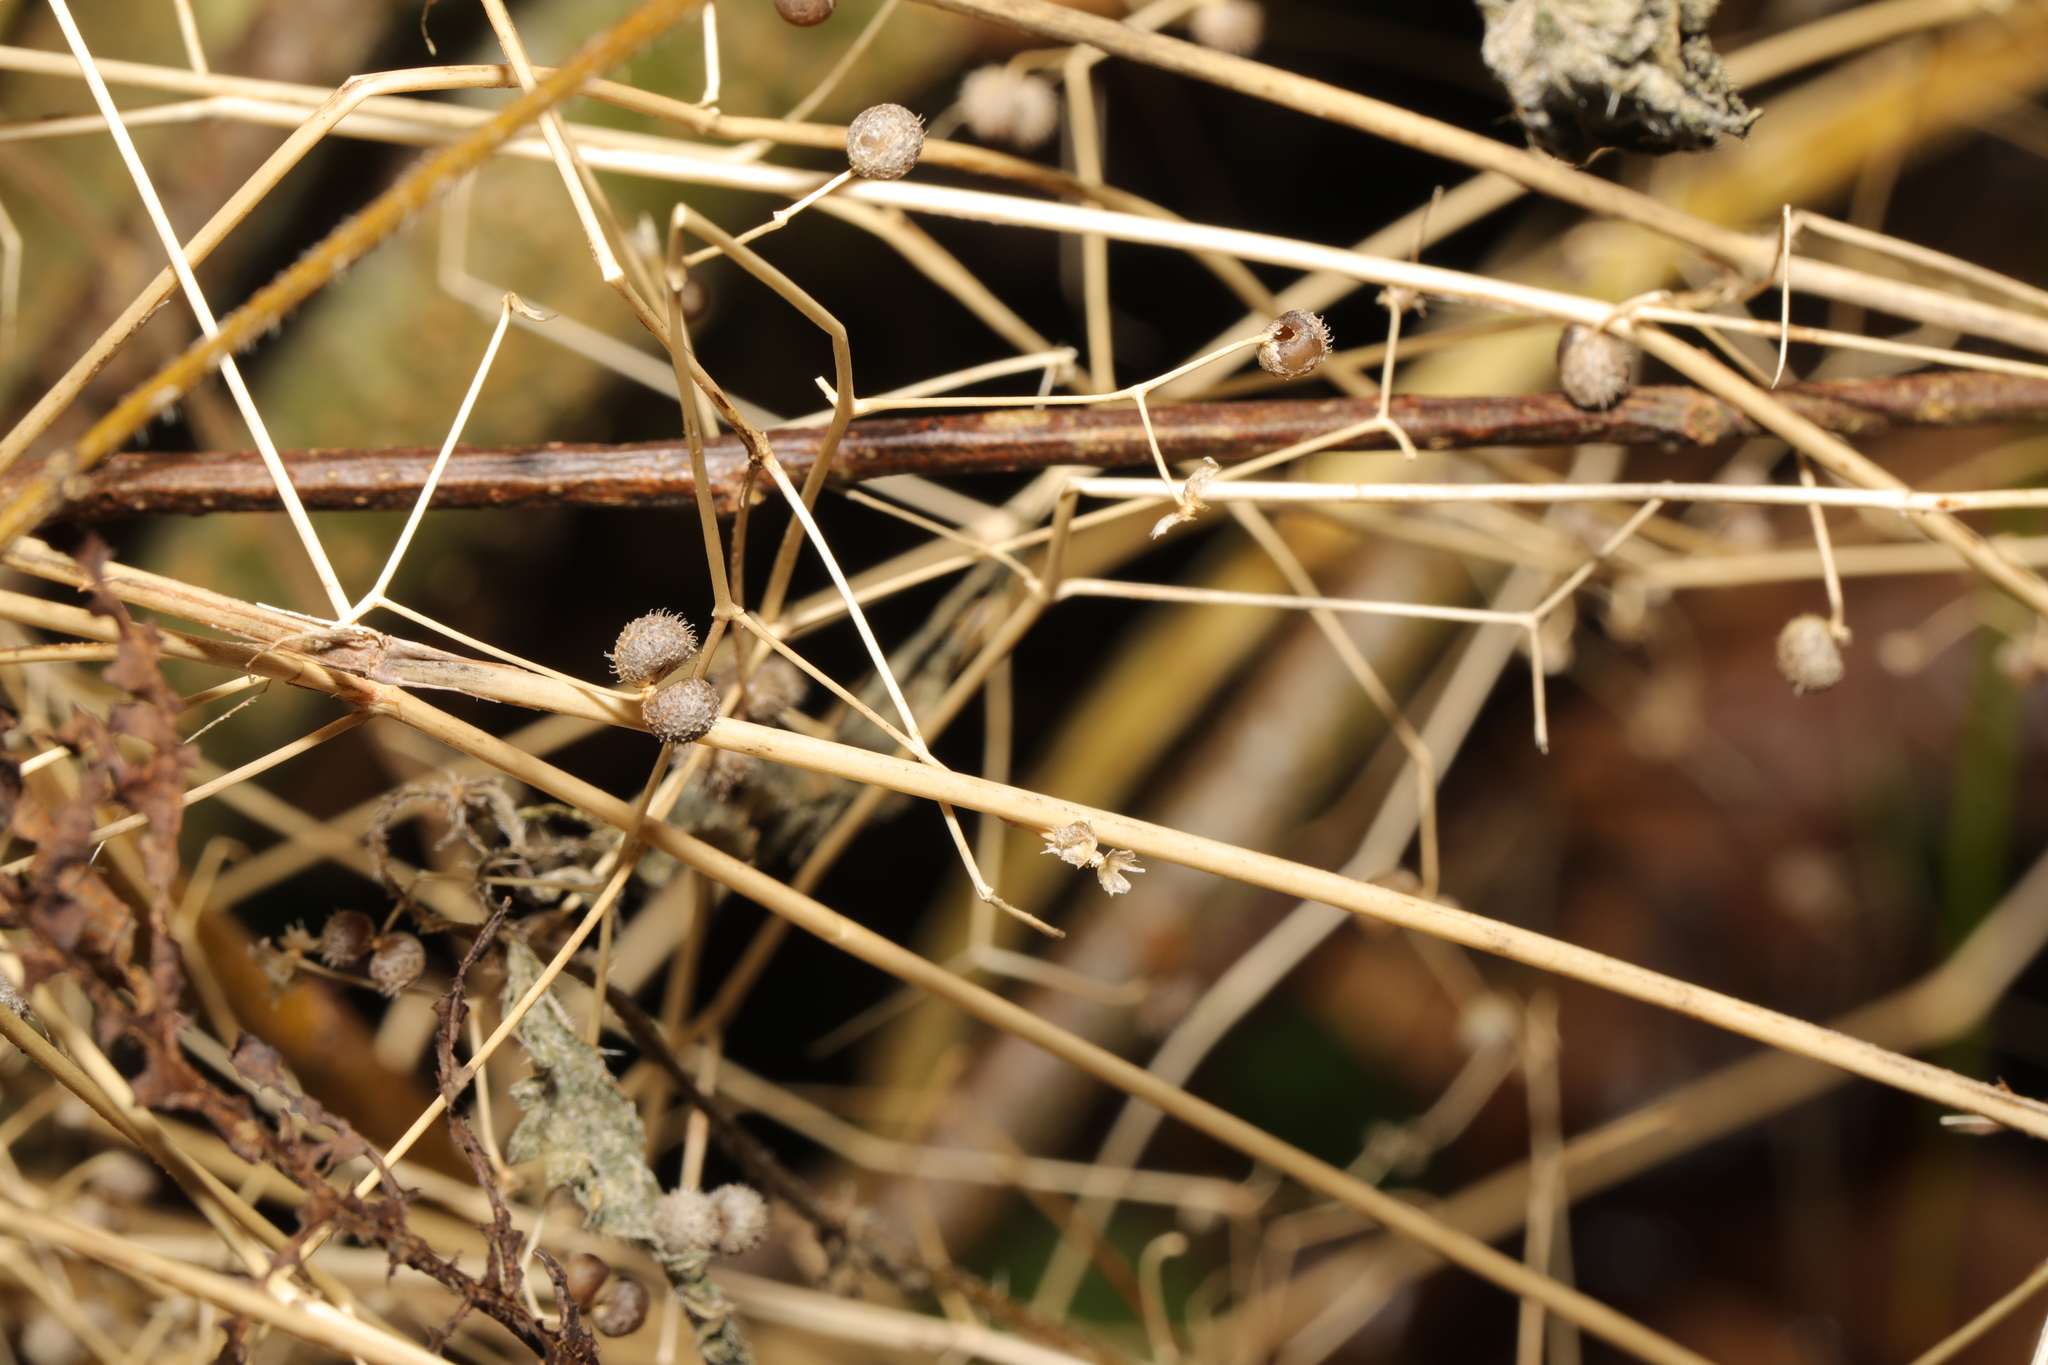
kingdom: Plantae
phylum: Tracheophyta
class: Magnoliopsida
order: Gentianales
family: Rubiaceae
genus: Galium
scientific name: Galium aparine
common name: Cleavers
